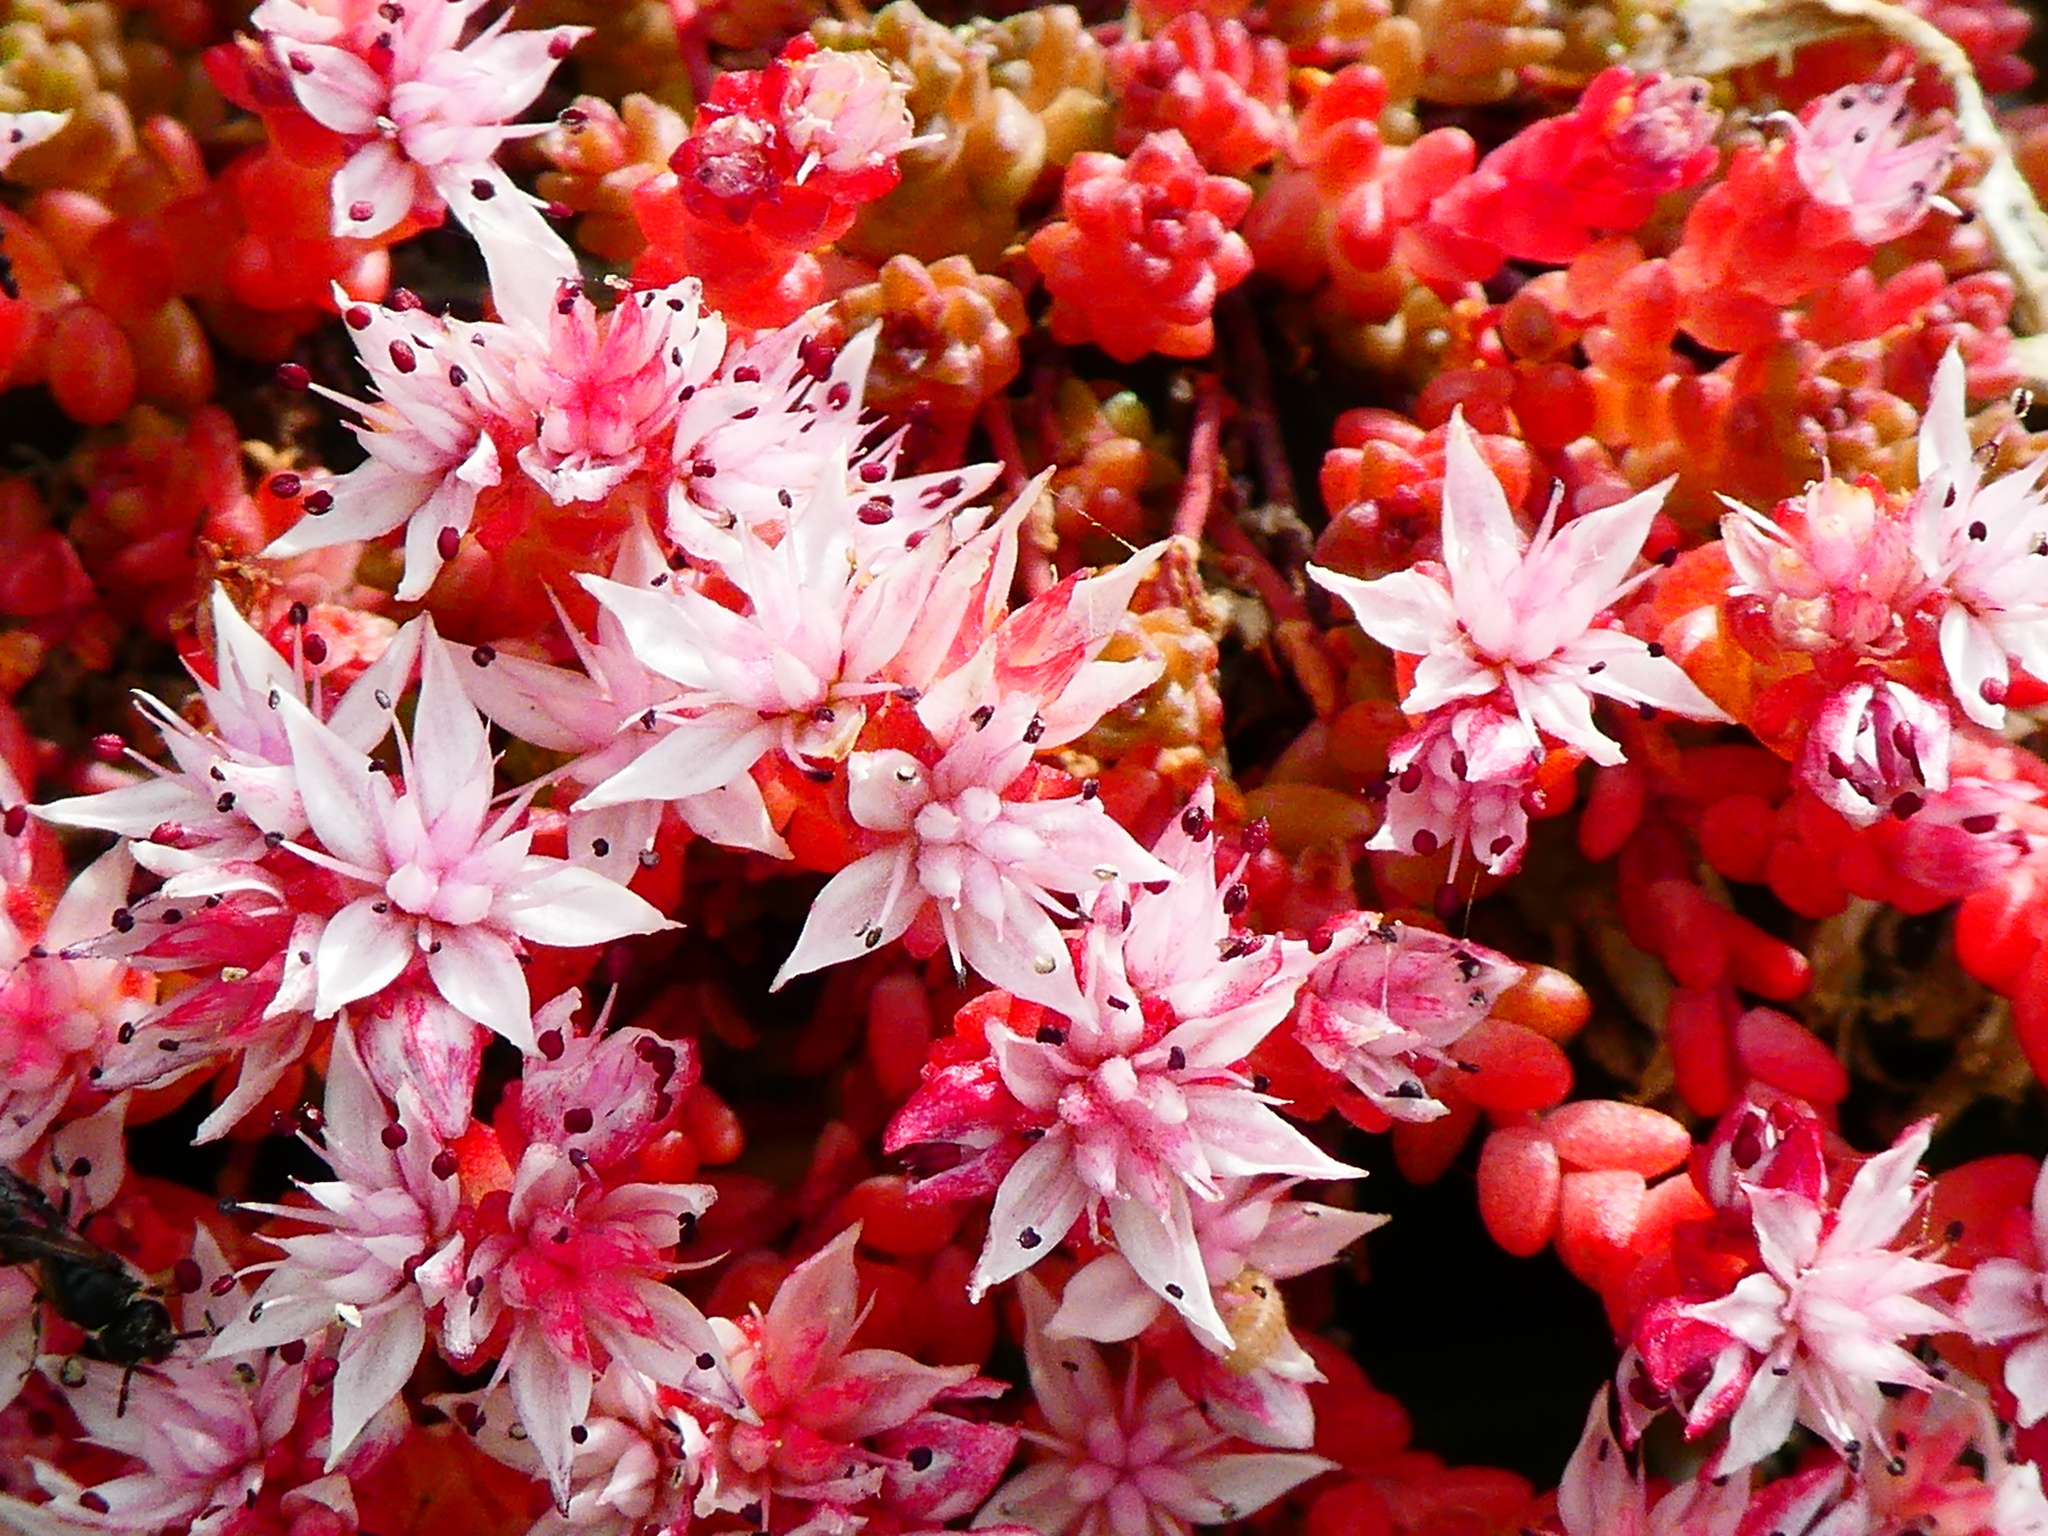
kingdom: Plantae
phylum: Tracheophyta
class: Magnoliopsida
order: Saxifragales
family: Crassulaceae
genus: Sedum
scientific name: Sedum anglicum
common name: English stonecrop
